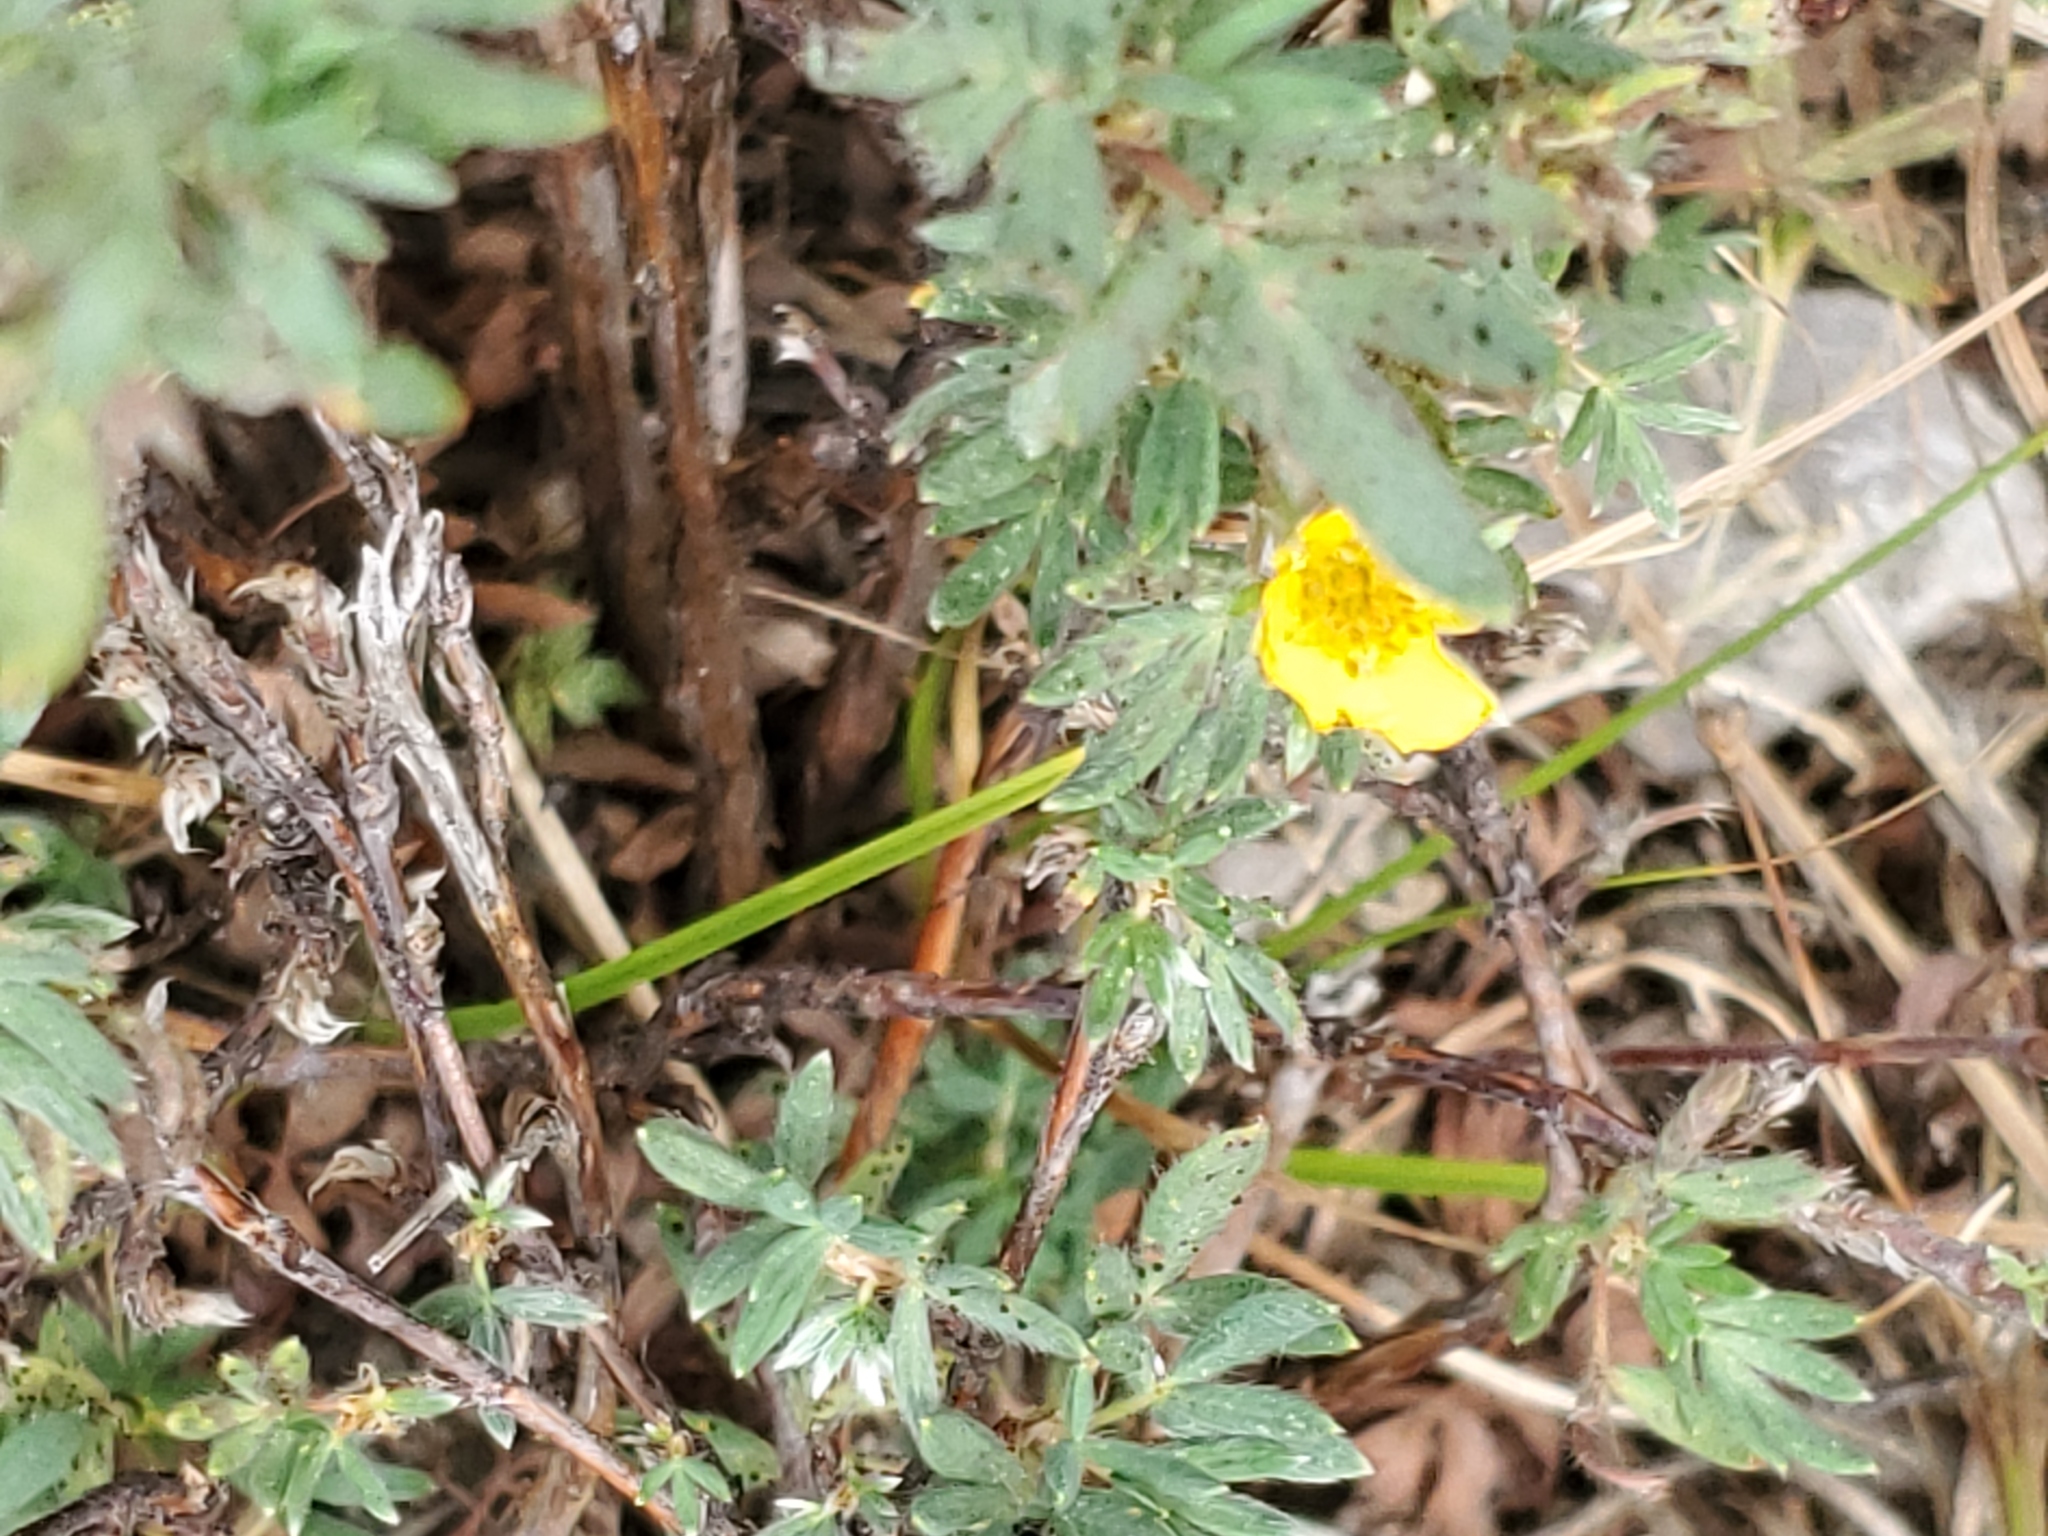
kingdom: Plantae
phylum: Tracheophyta
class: Magnoliopsida
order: Rosales
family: Rosaceae
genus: Dasiphora
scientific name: Dasiphora fruticosa
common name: Shrubby cinquefoil
